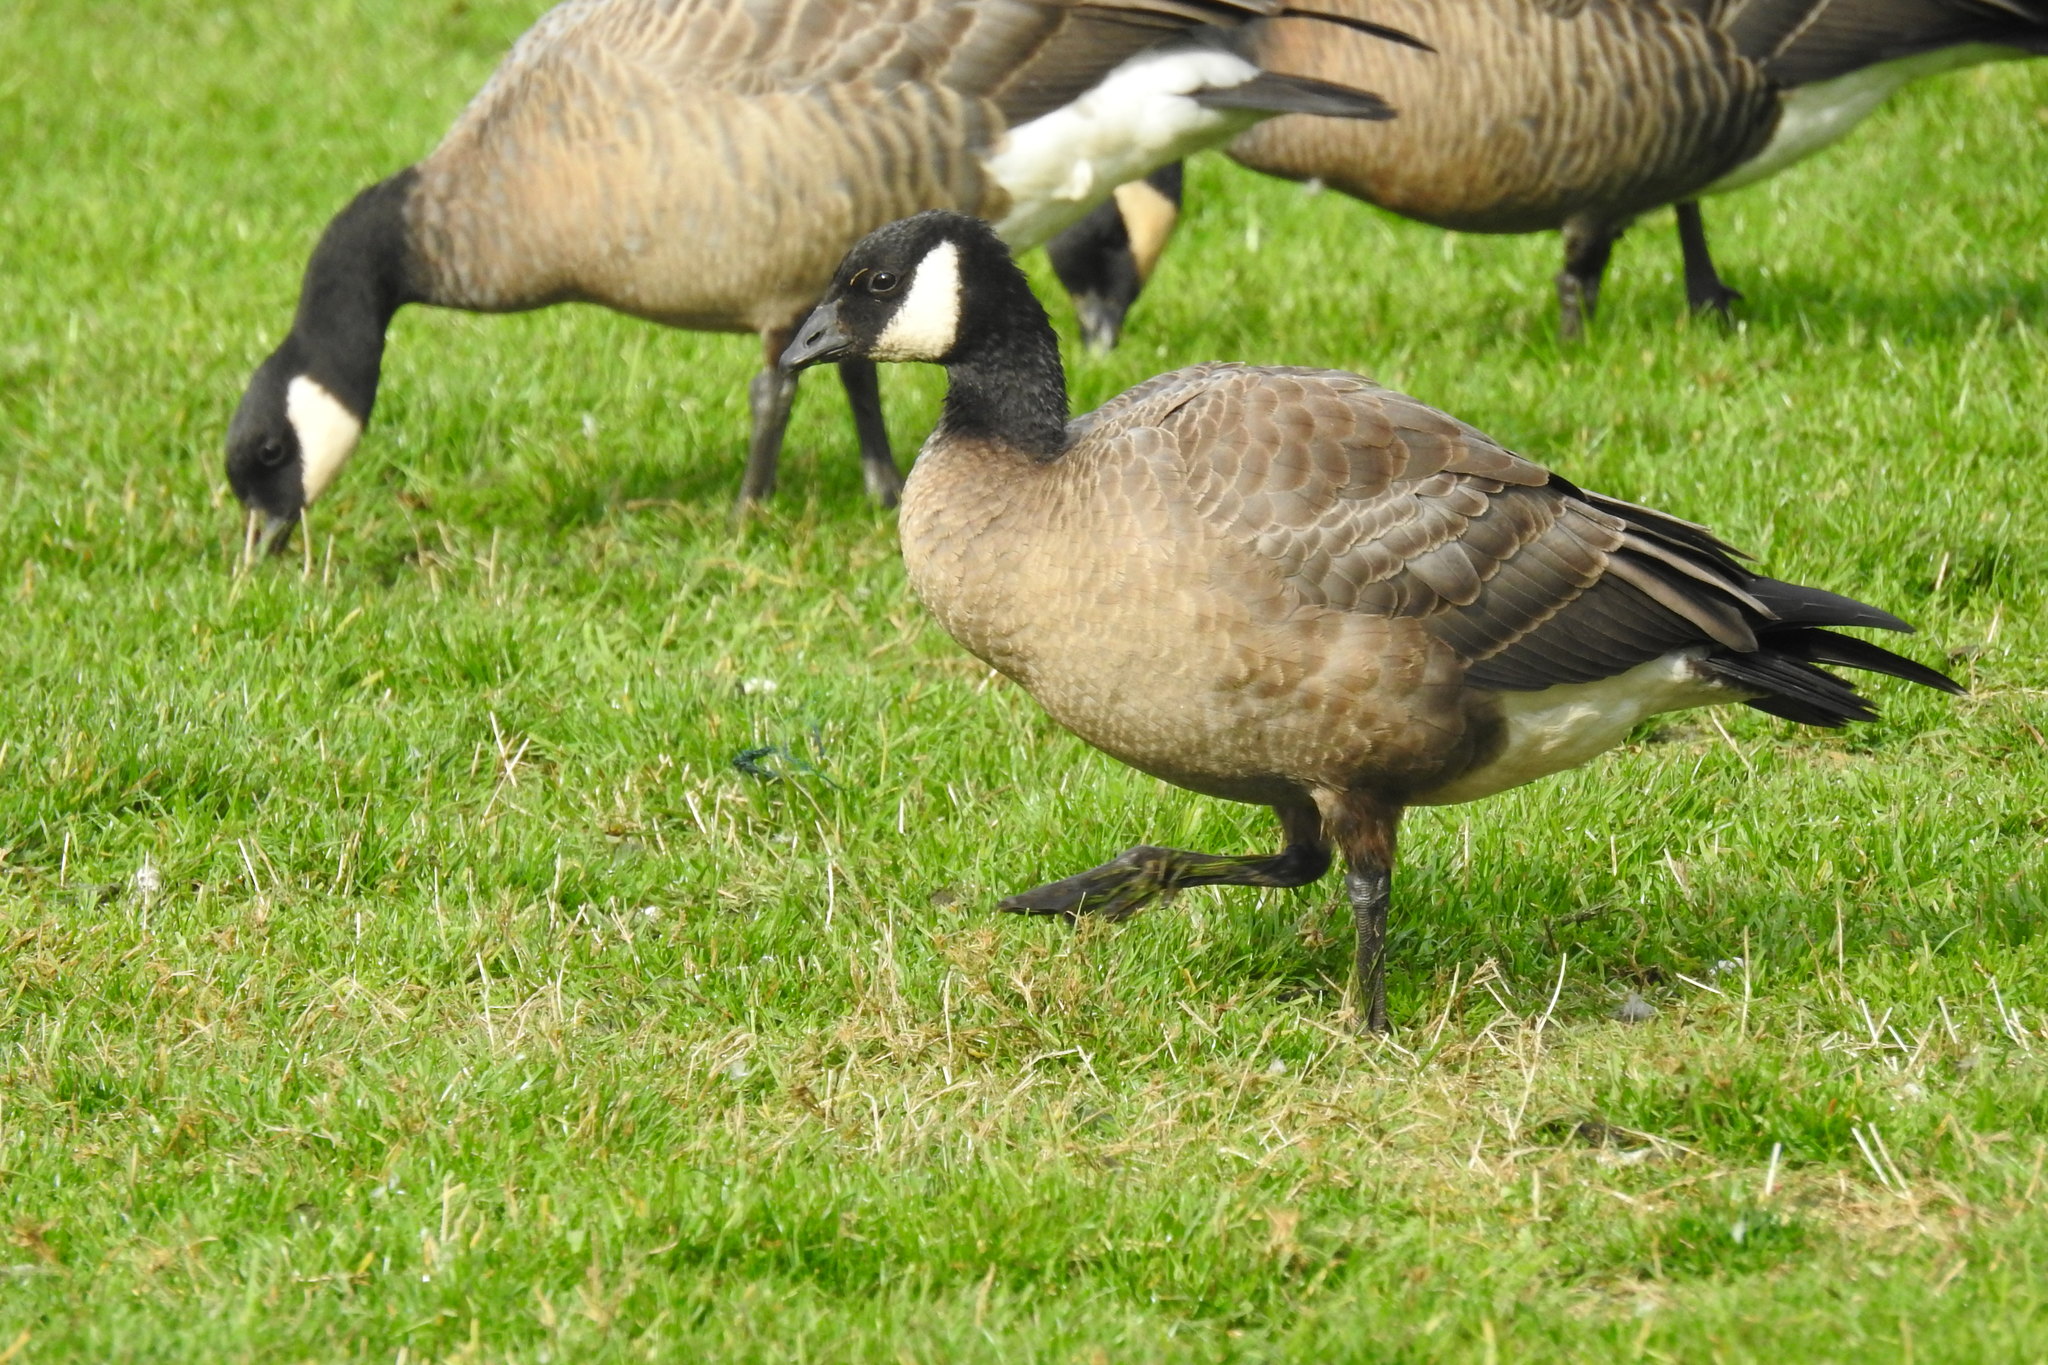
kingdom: Animalia
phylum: Chordata
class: Aves
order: Anseriformes
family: Anatidae
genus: Branta
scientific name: Branta hutchinsii
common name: Cackling goose
